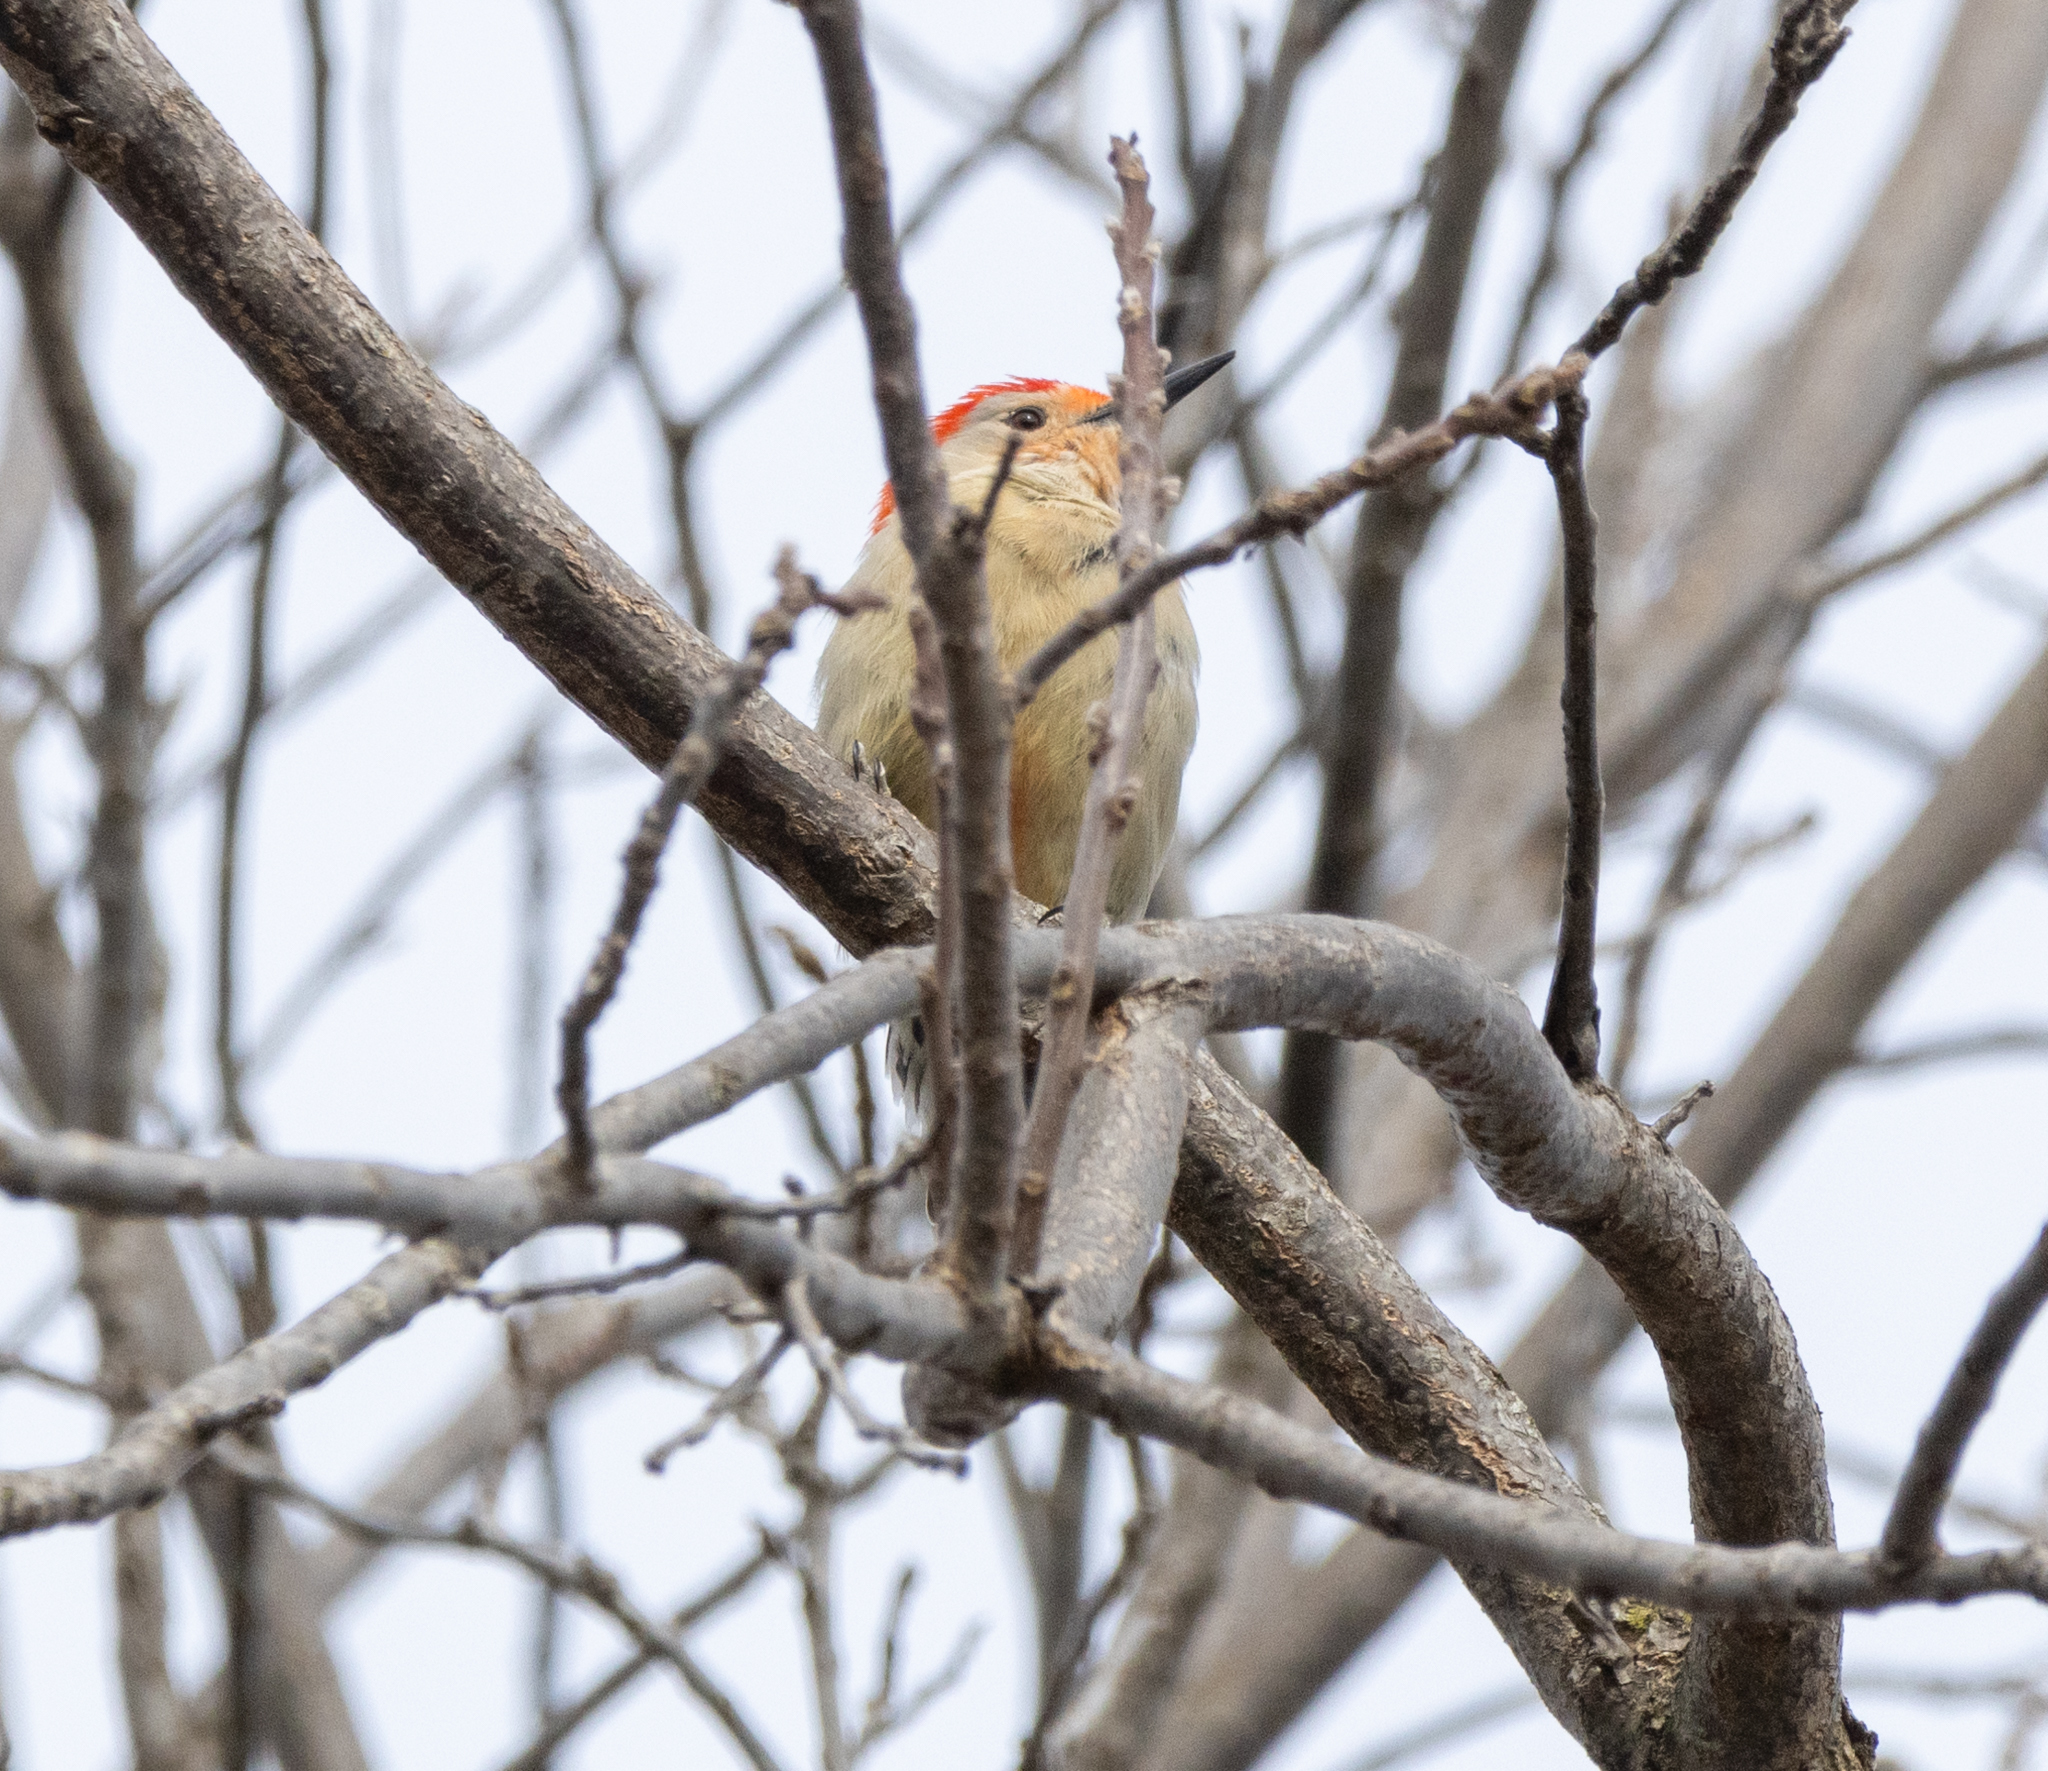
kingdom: Animalia
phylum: Chordata
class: Aves
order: Piciformes
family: Picidae
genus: Melanerpes
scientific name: Melanerpes carolinus
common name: Red-bellied woodpecker
